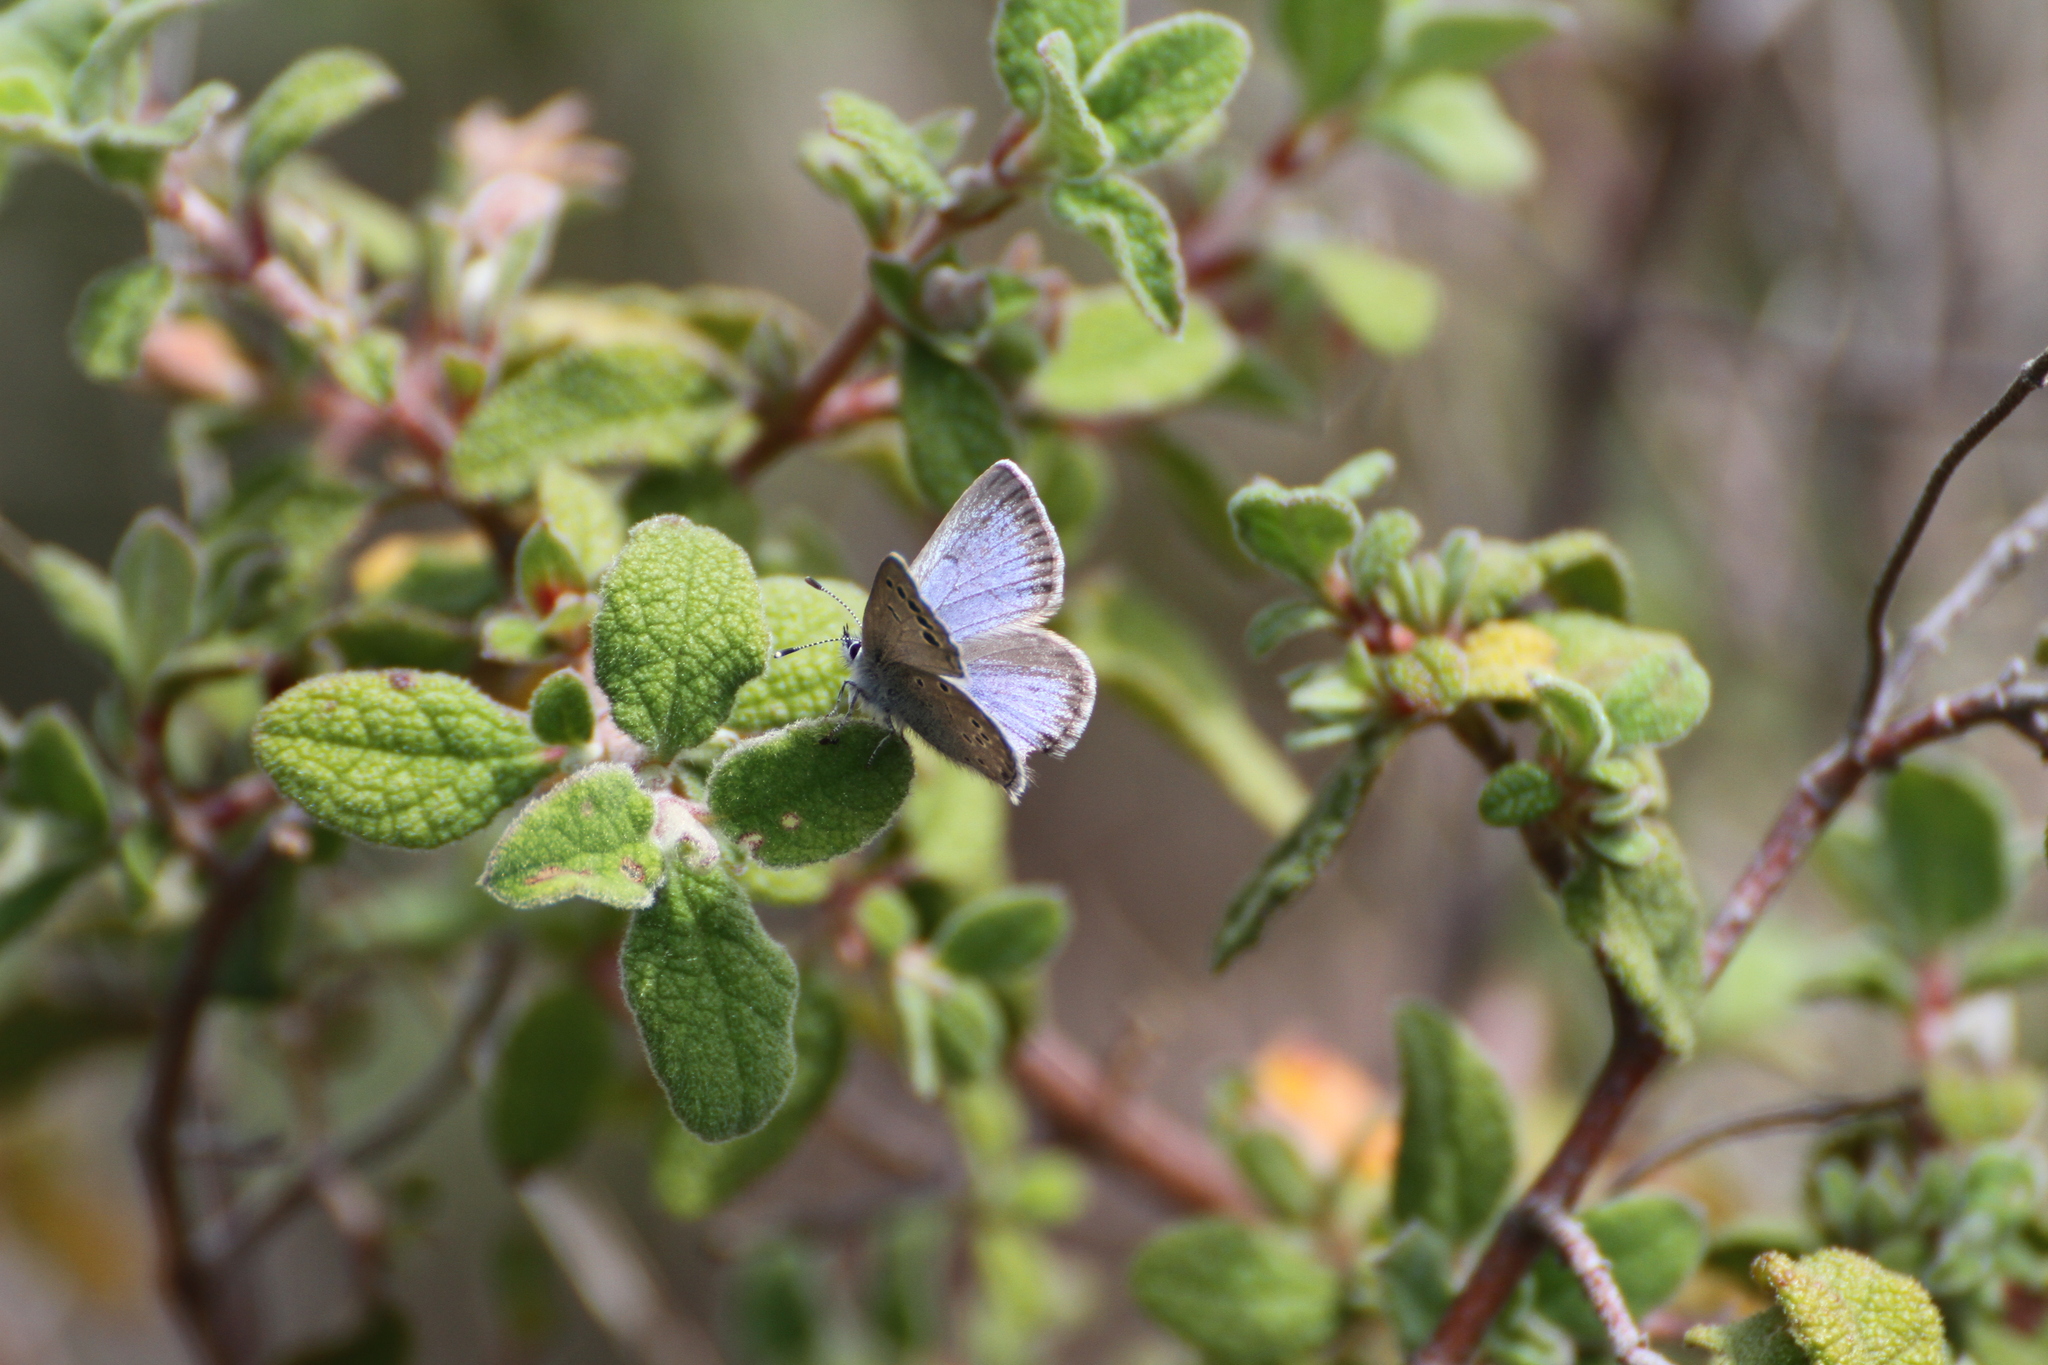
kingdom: Animalia
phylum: Arthropoda
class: Insecta
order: Lepidoptera
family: Lycaenidae
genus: Glaucopsyche
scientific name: Glaucopsyche melanops
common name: Black-eyed blue
